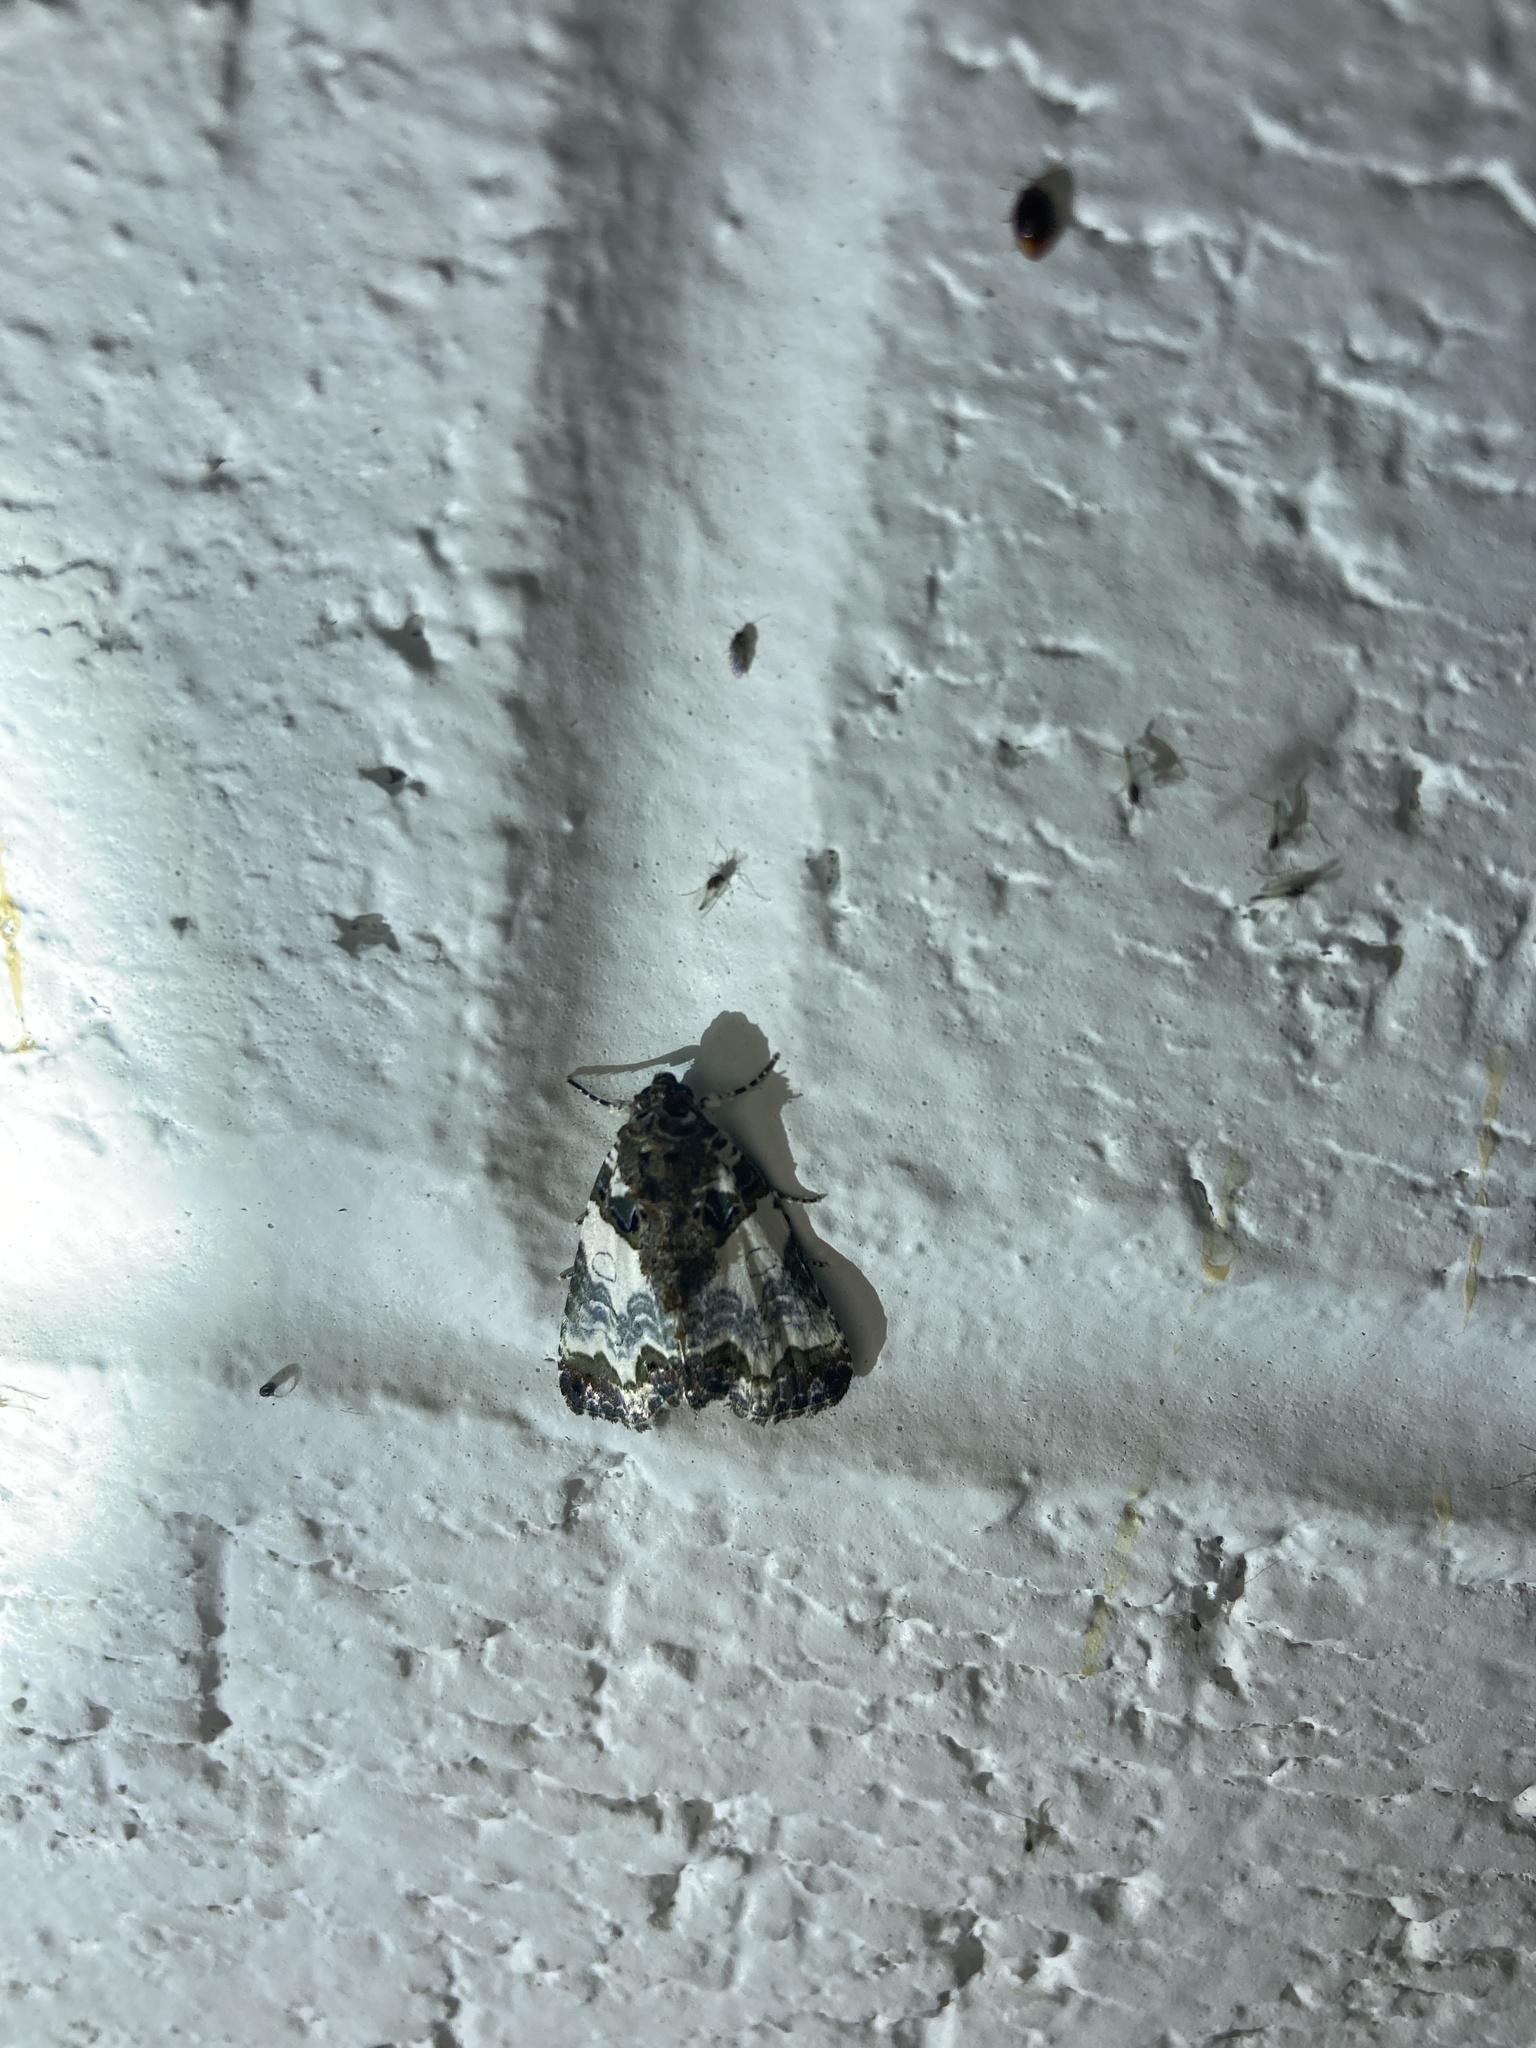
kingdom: Animalia
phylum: Arthropoda
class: Insecta
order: Lepidoptera
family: Noctuidae
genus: Cerma
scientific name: Cerma cerintha
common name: Tufted bird-dropping moth
